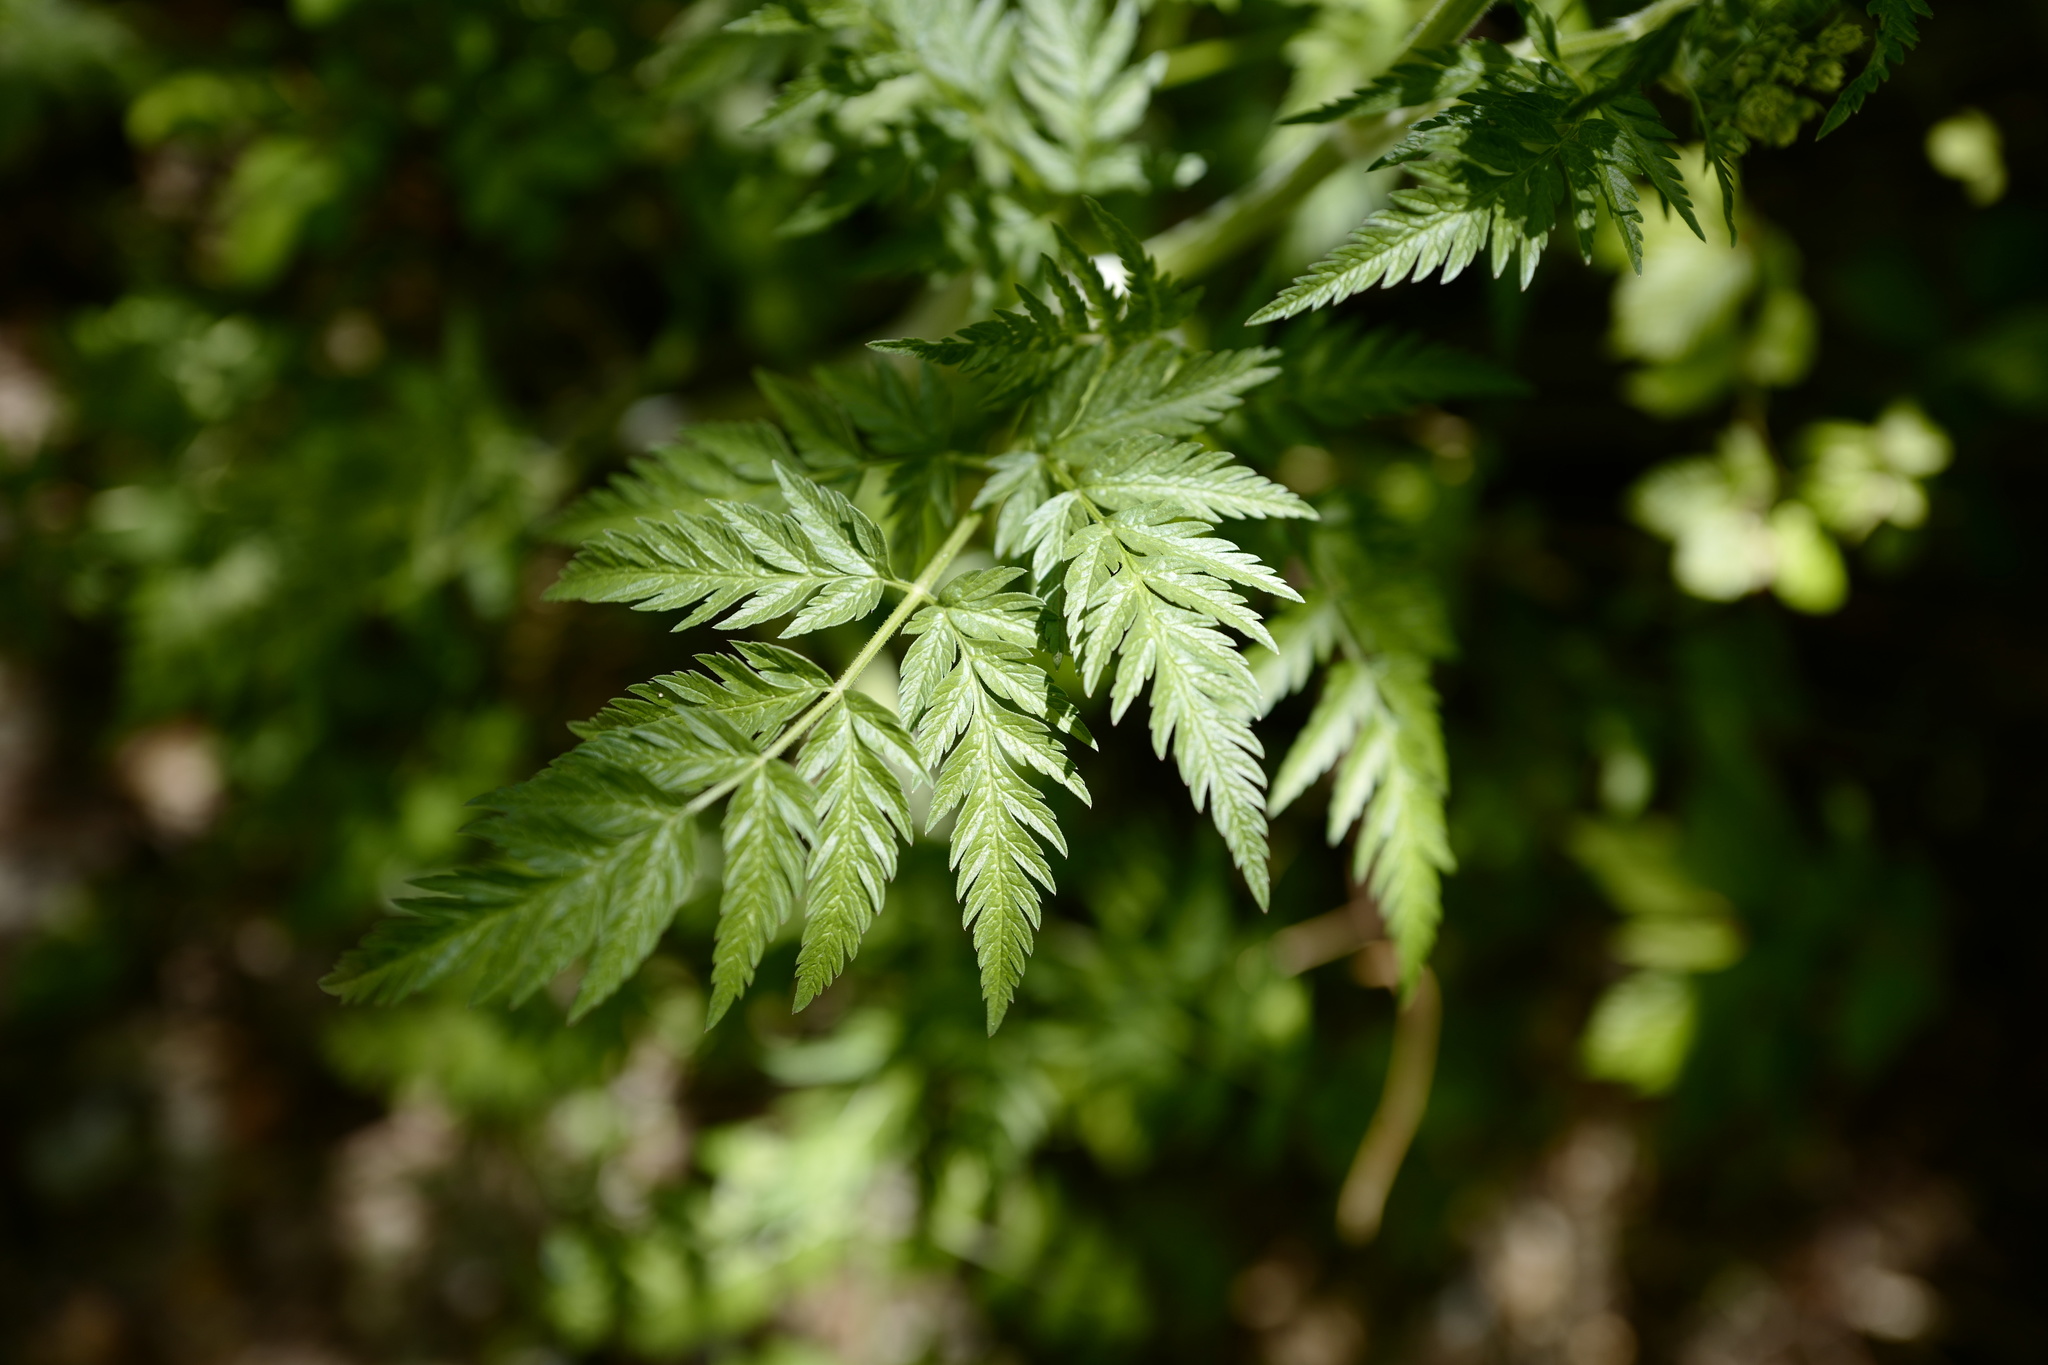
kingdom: Plantae
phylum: Tracheophyta
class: Magnoliopsida
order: Apiales
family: Apiaceae
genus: Anthriscus
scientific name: Anthriscus sylvestris
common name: Cow parsley
